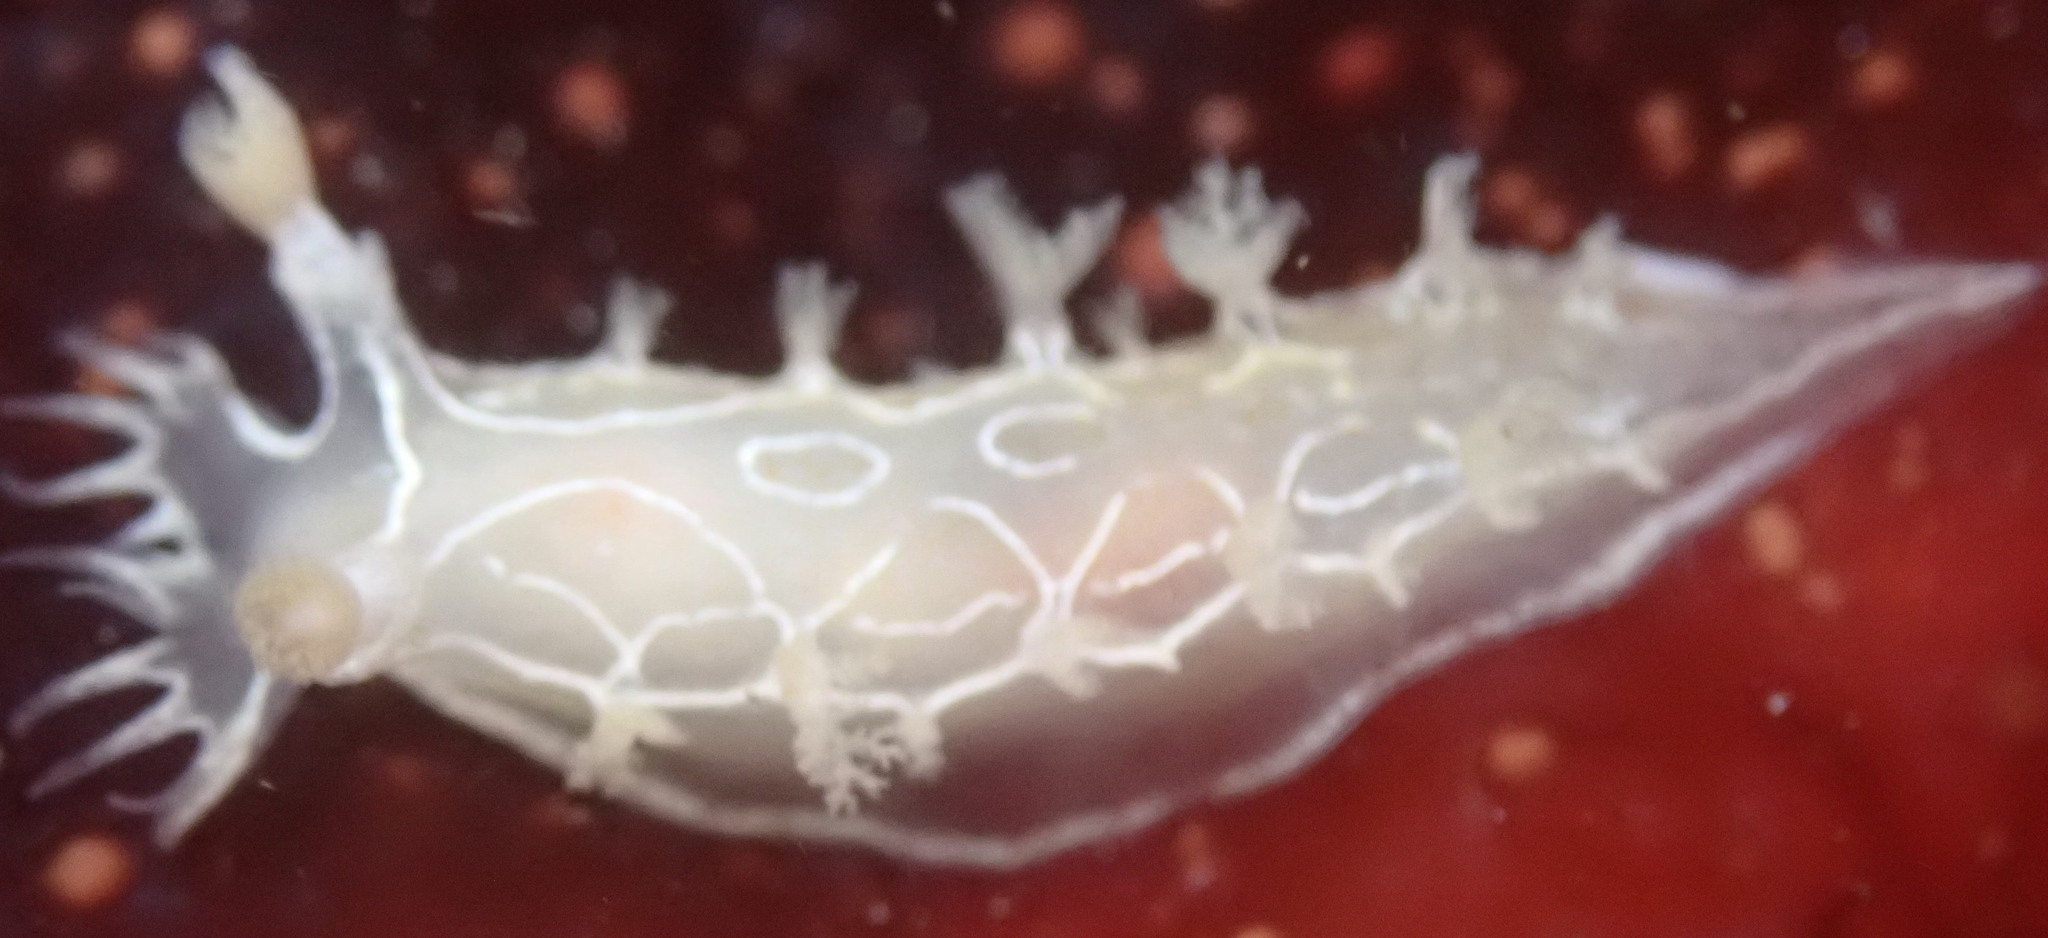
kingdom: Animalia
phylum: Mollusca
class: Gastropoda
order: Nudibranchia
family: Tritoniidae
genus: Tritonia
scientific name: Tritonia festiva
